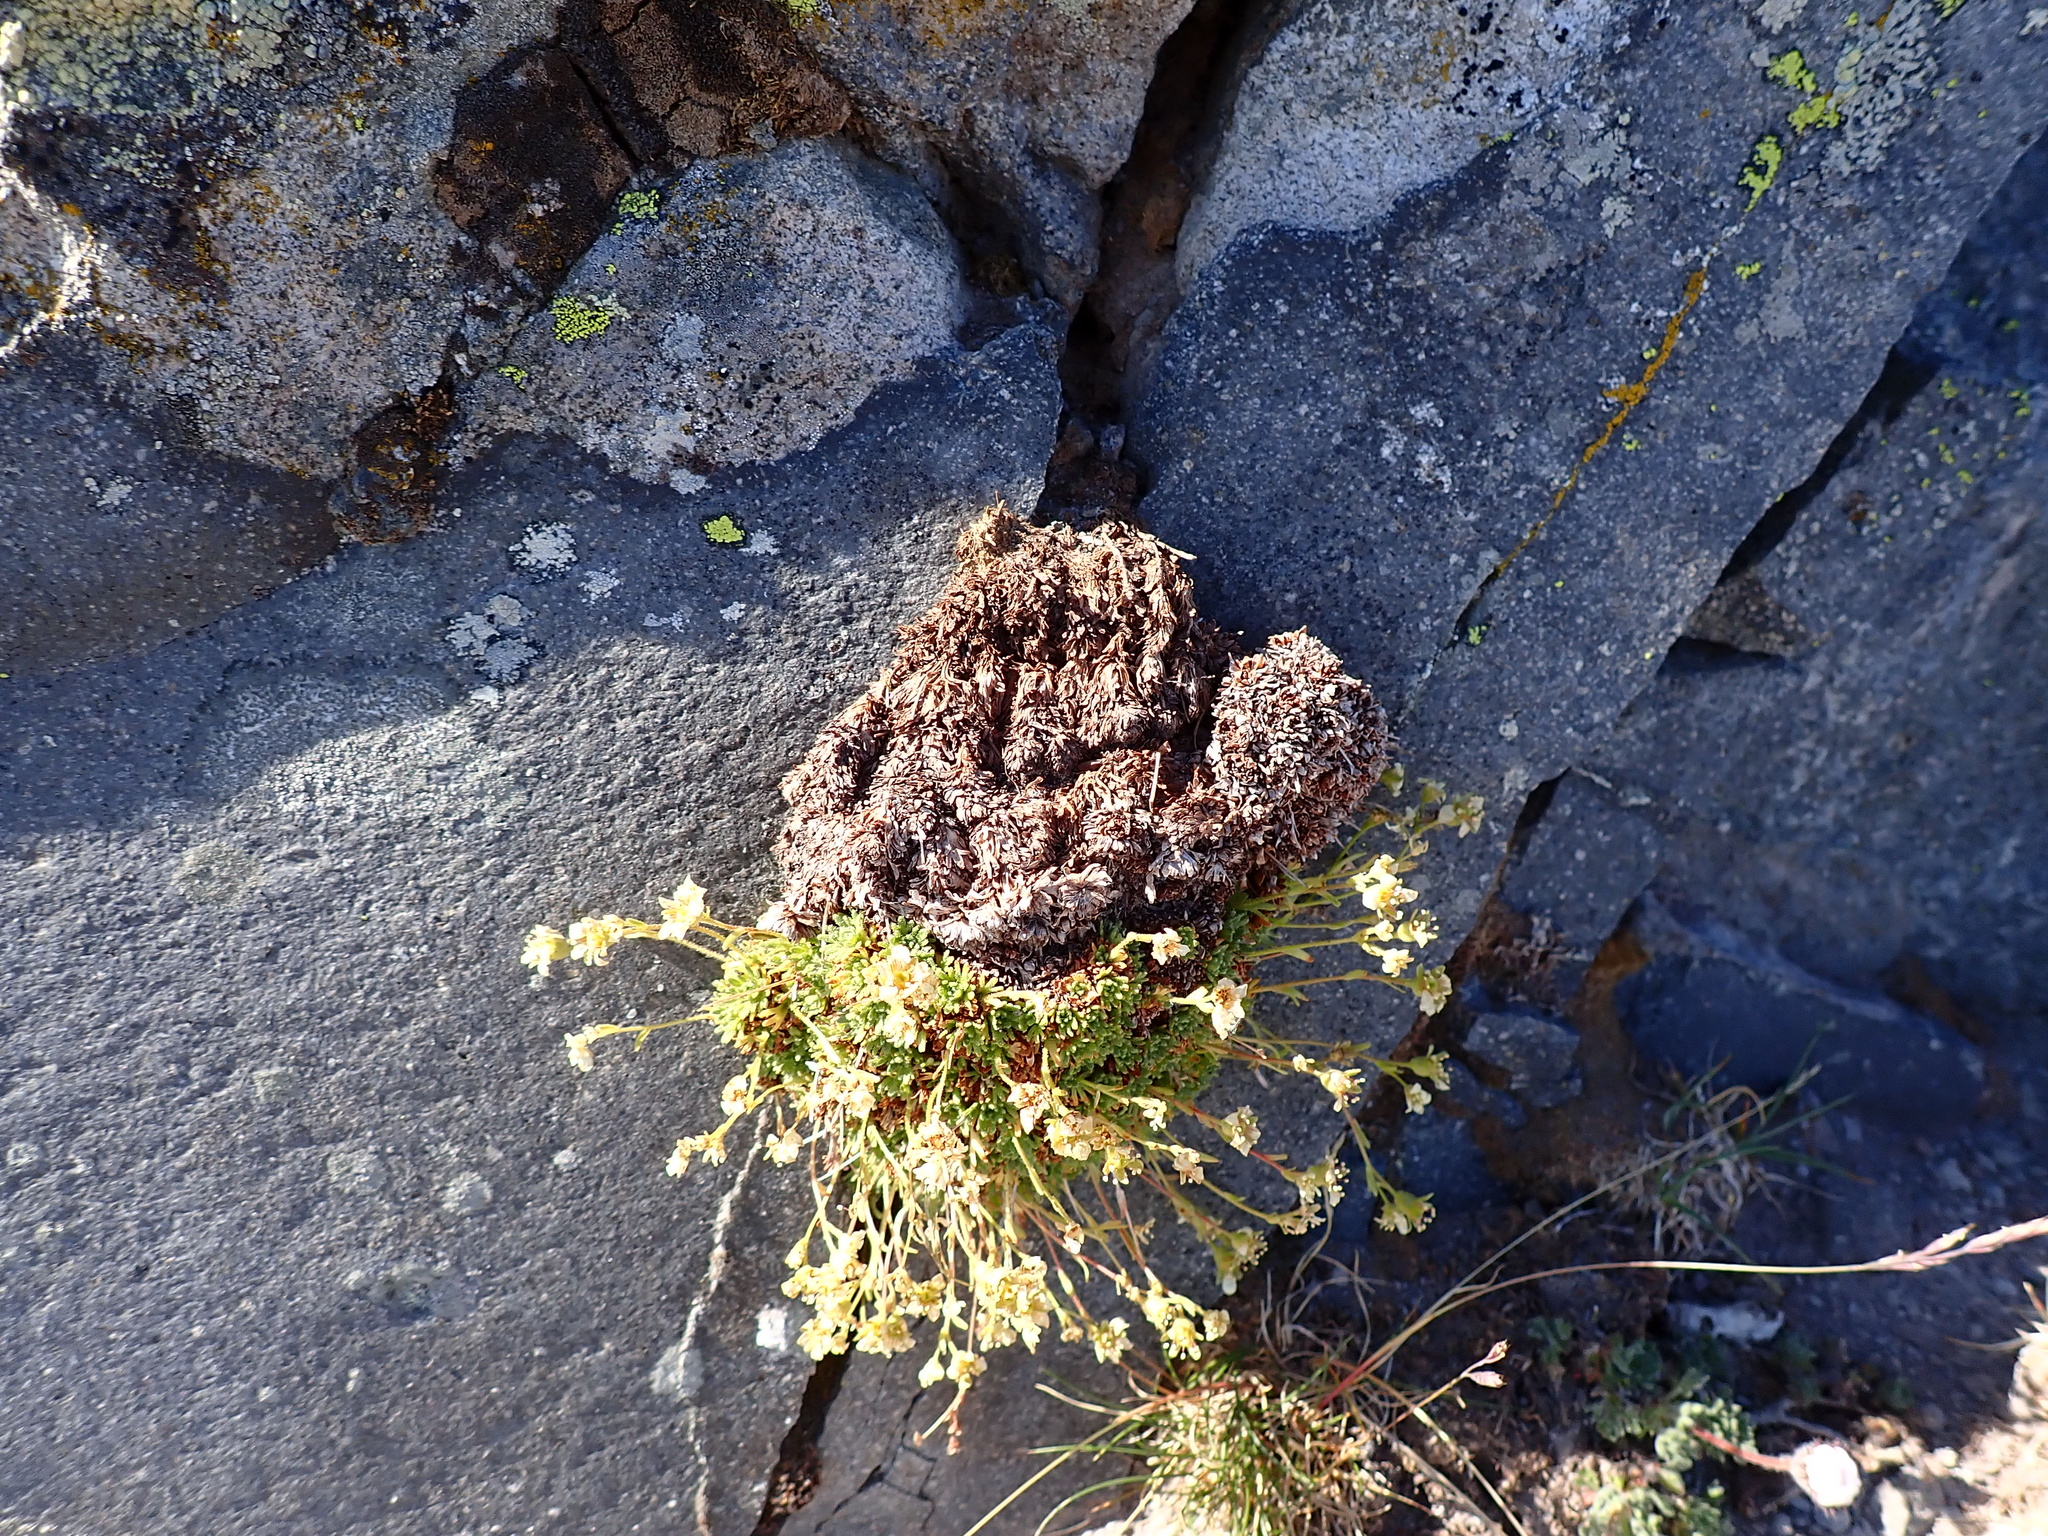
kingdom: Plantae
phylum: Tracheophyta
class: Magnoliopsida
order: Saxifragales
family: Saxifragaceae
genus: Saxifraga
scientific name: Saxifraga cespitosa
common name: Tufted saxifrage
